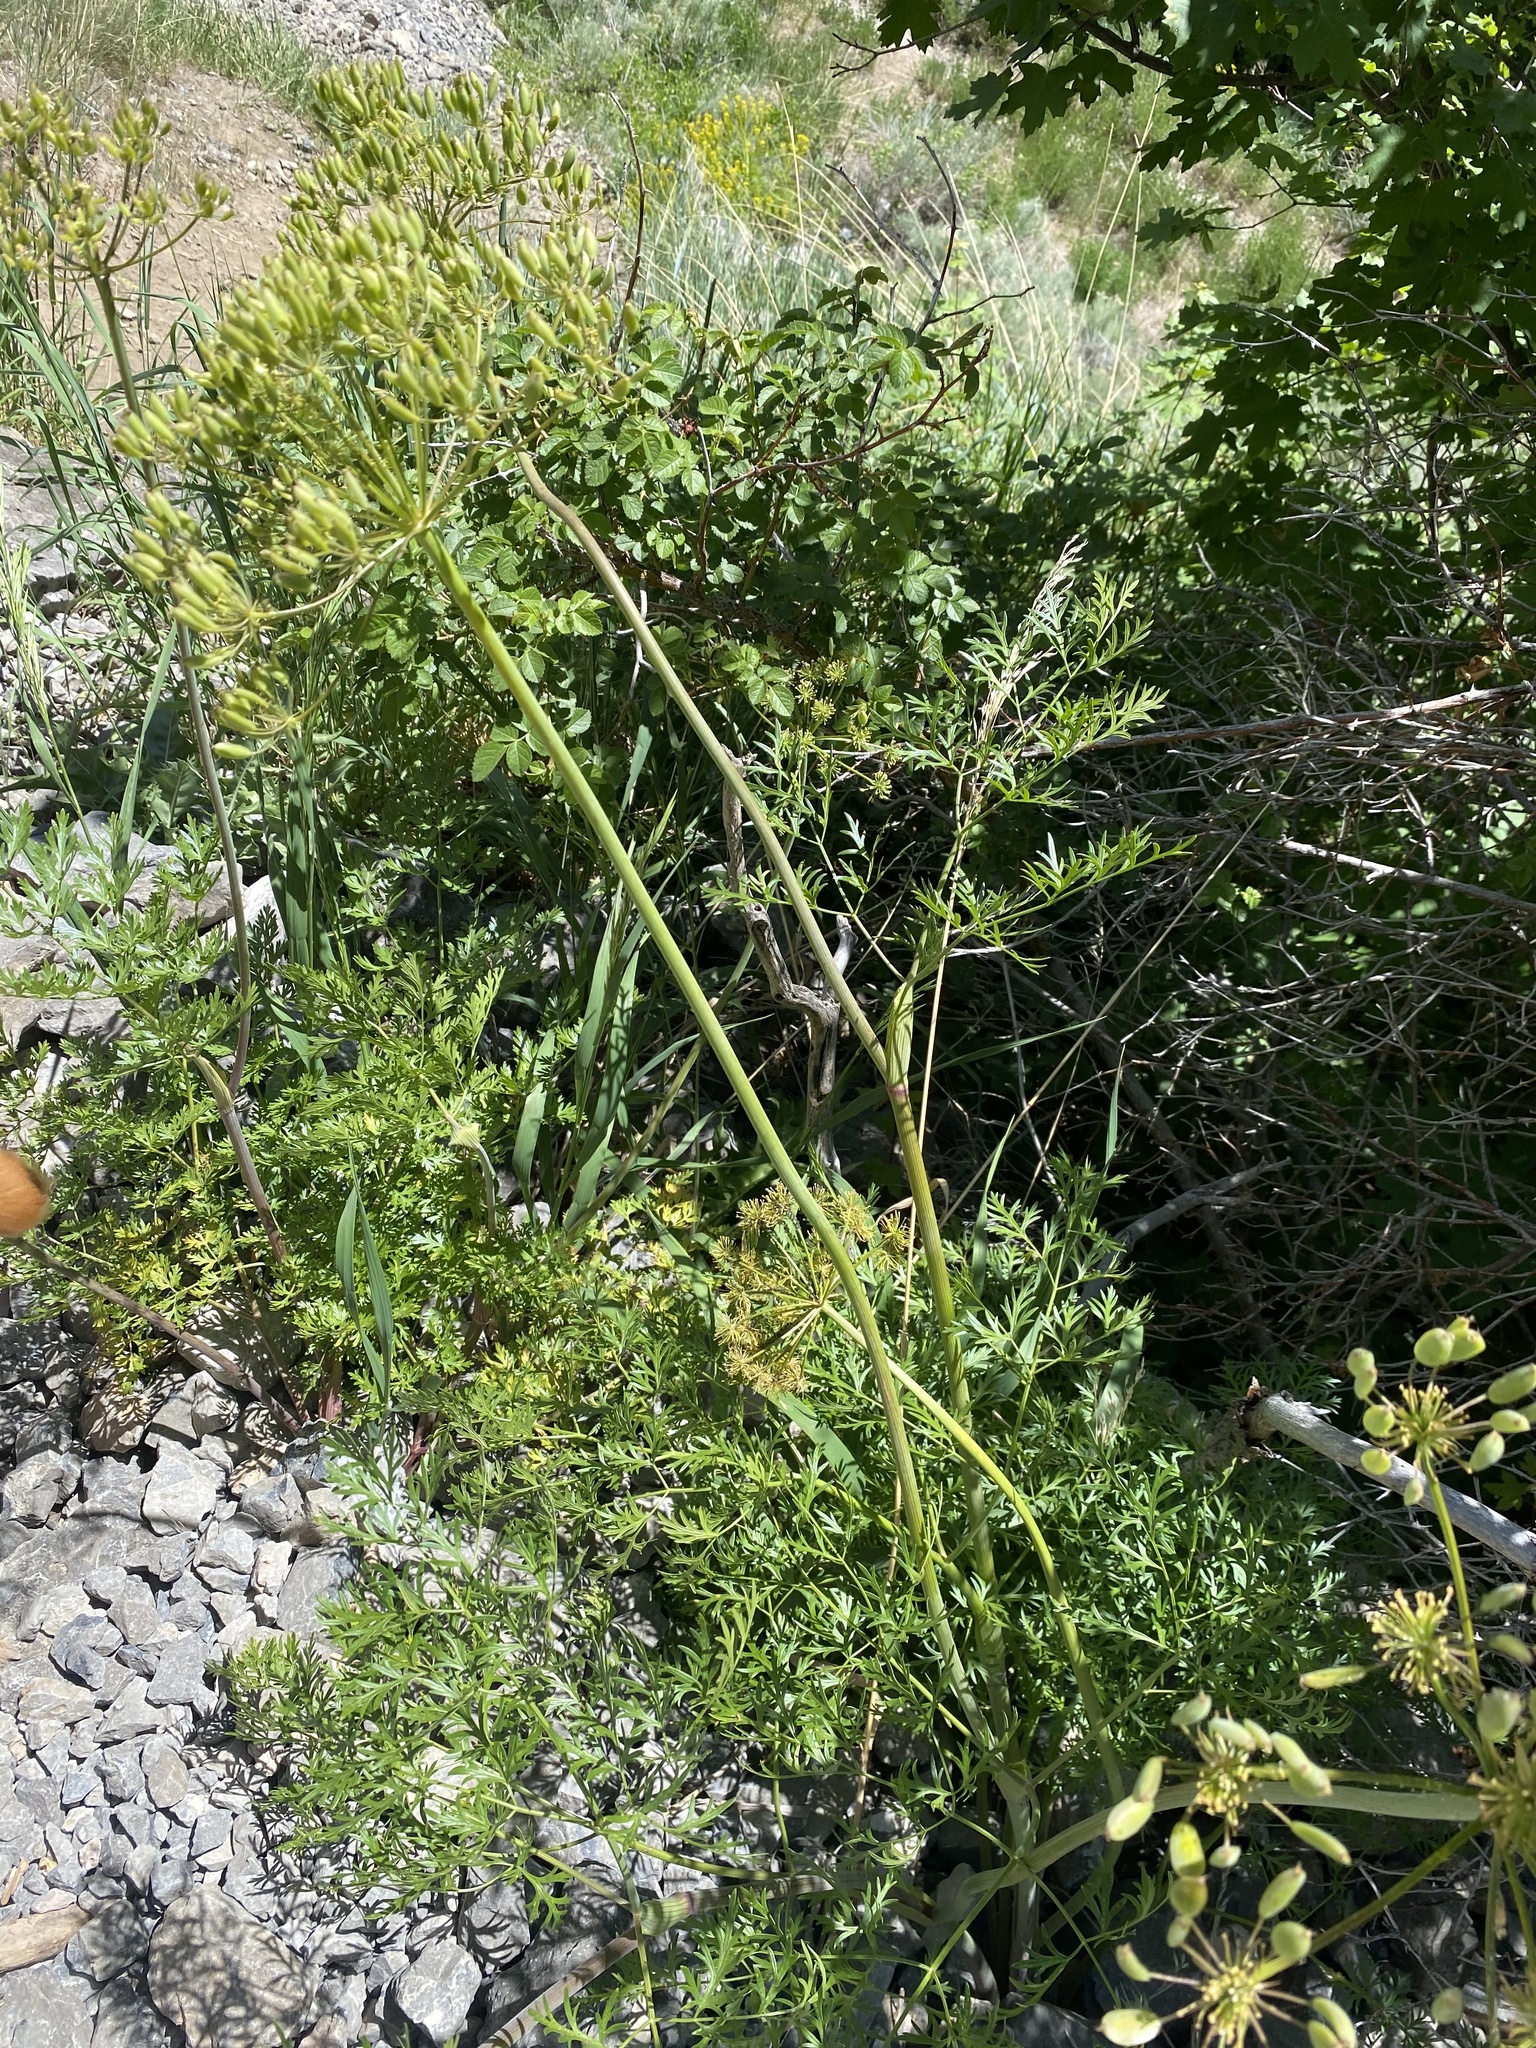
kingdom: Plantae
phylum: Tracheophyta
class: Magnoliopsida
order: Apiales
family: Apiaceae
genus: Lomatium
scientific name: Lomatium multifidum
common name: Carrot-leaved biscuitroot
